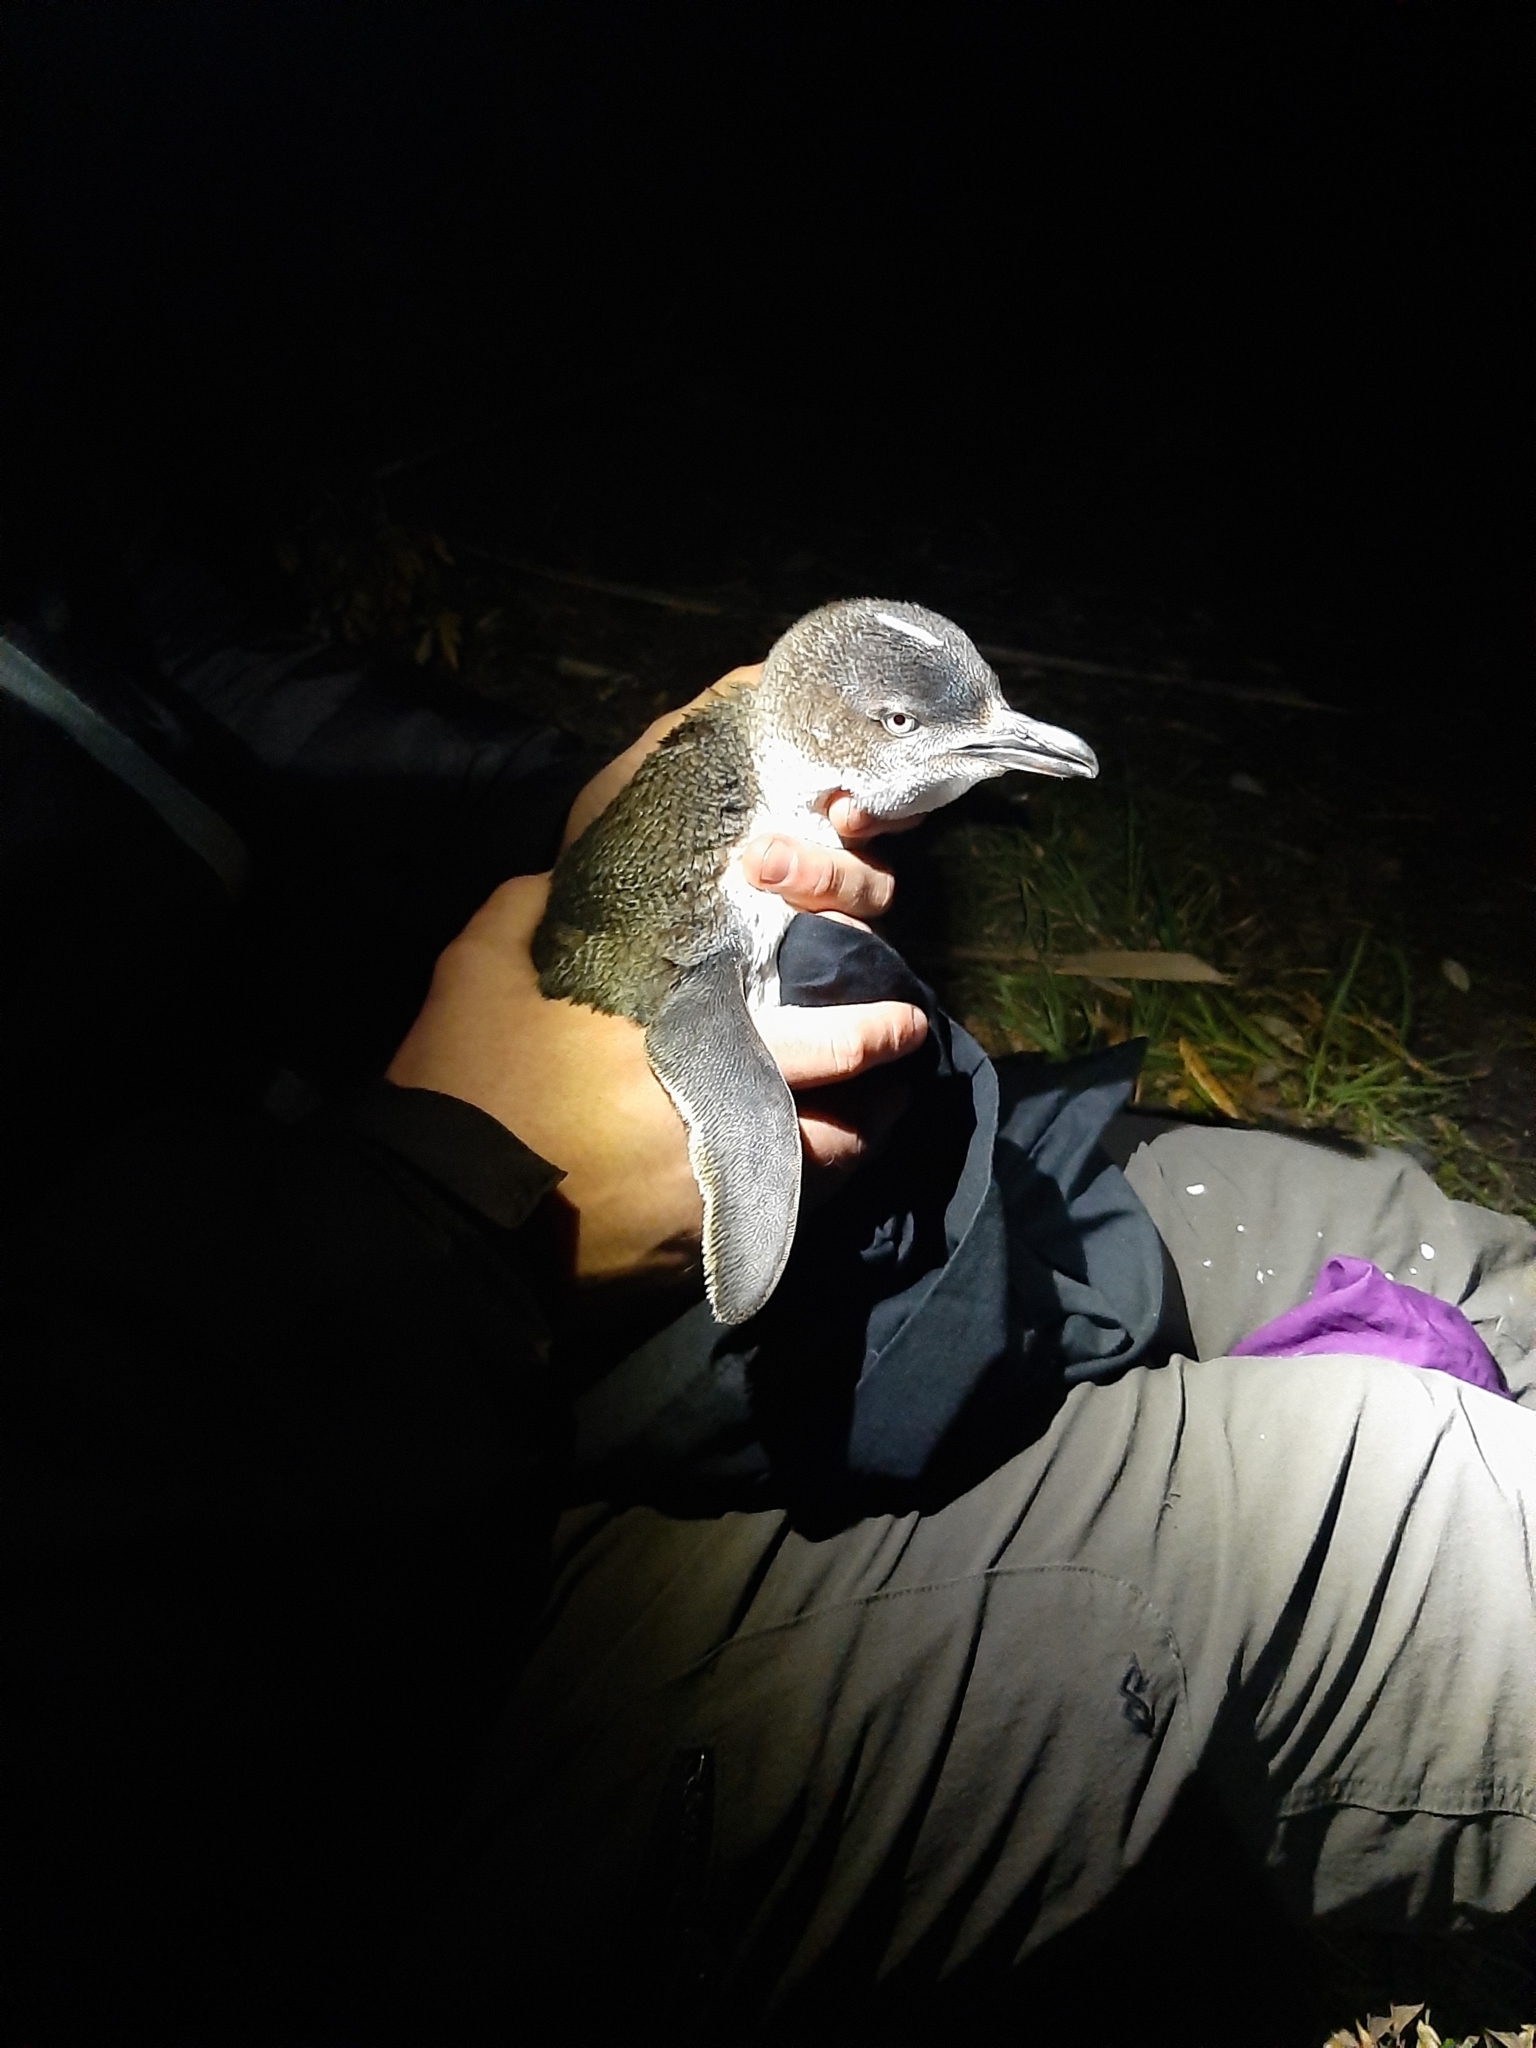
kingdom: Animalia
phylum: Chordata
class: Aves
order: Sphenisciformes
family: Spheniscidae
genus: Eudyptula
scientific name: Eudyptula minor
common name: Little penguin
